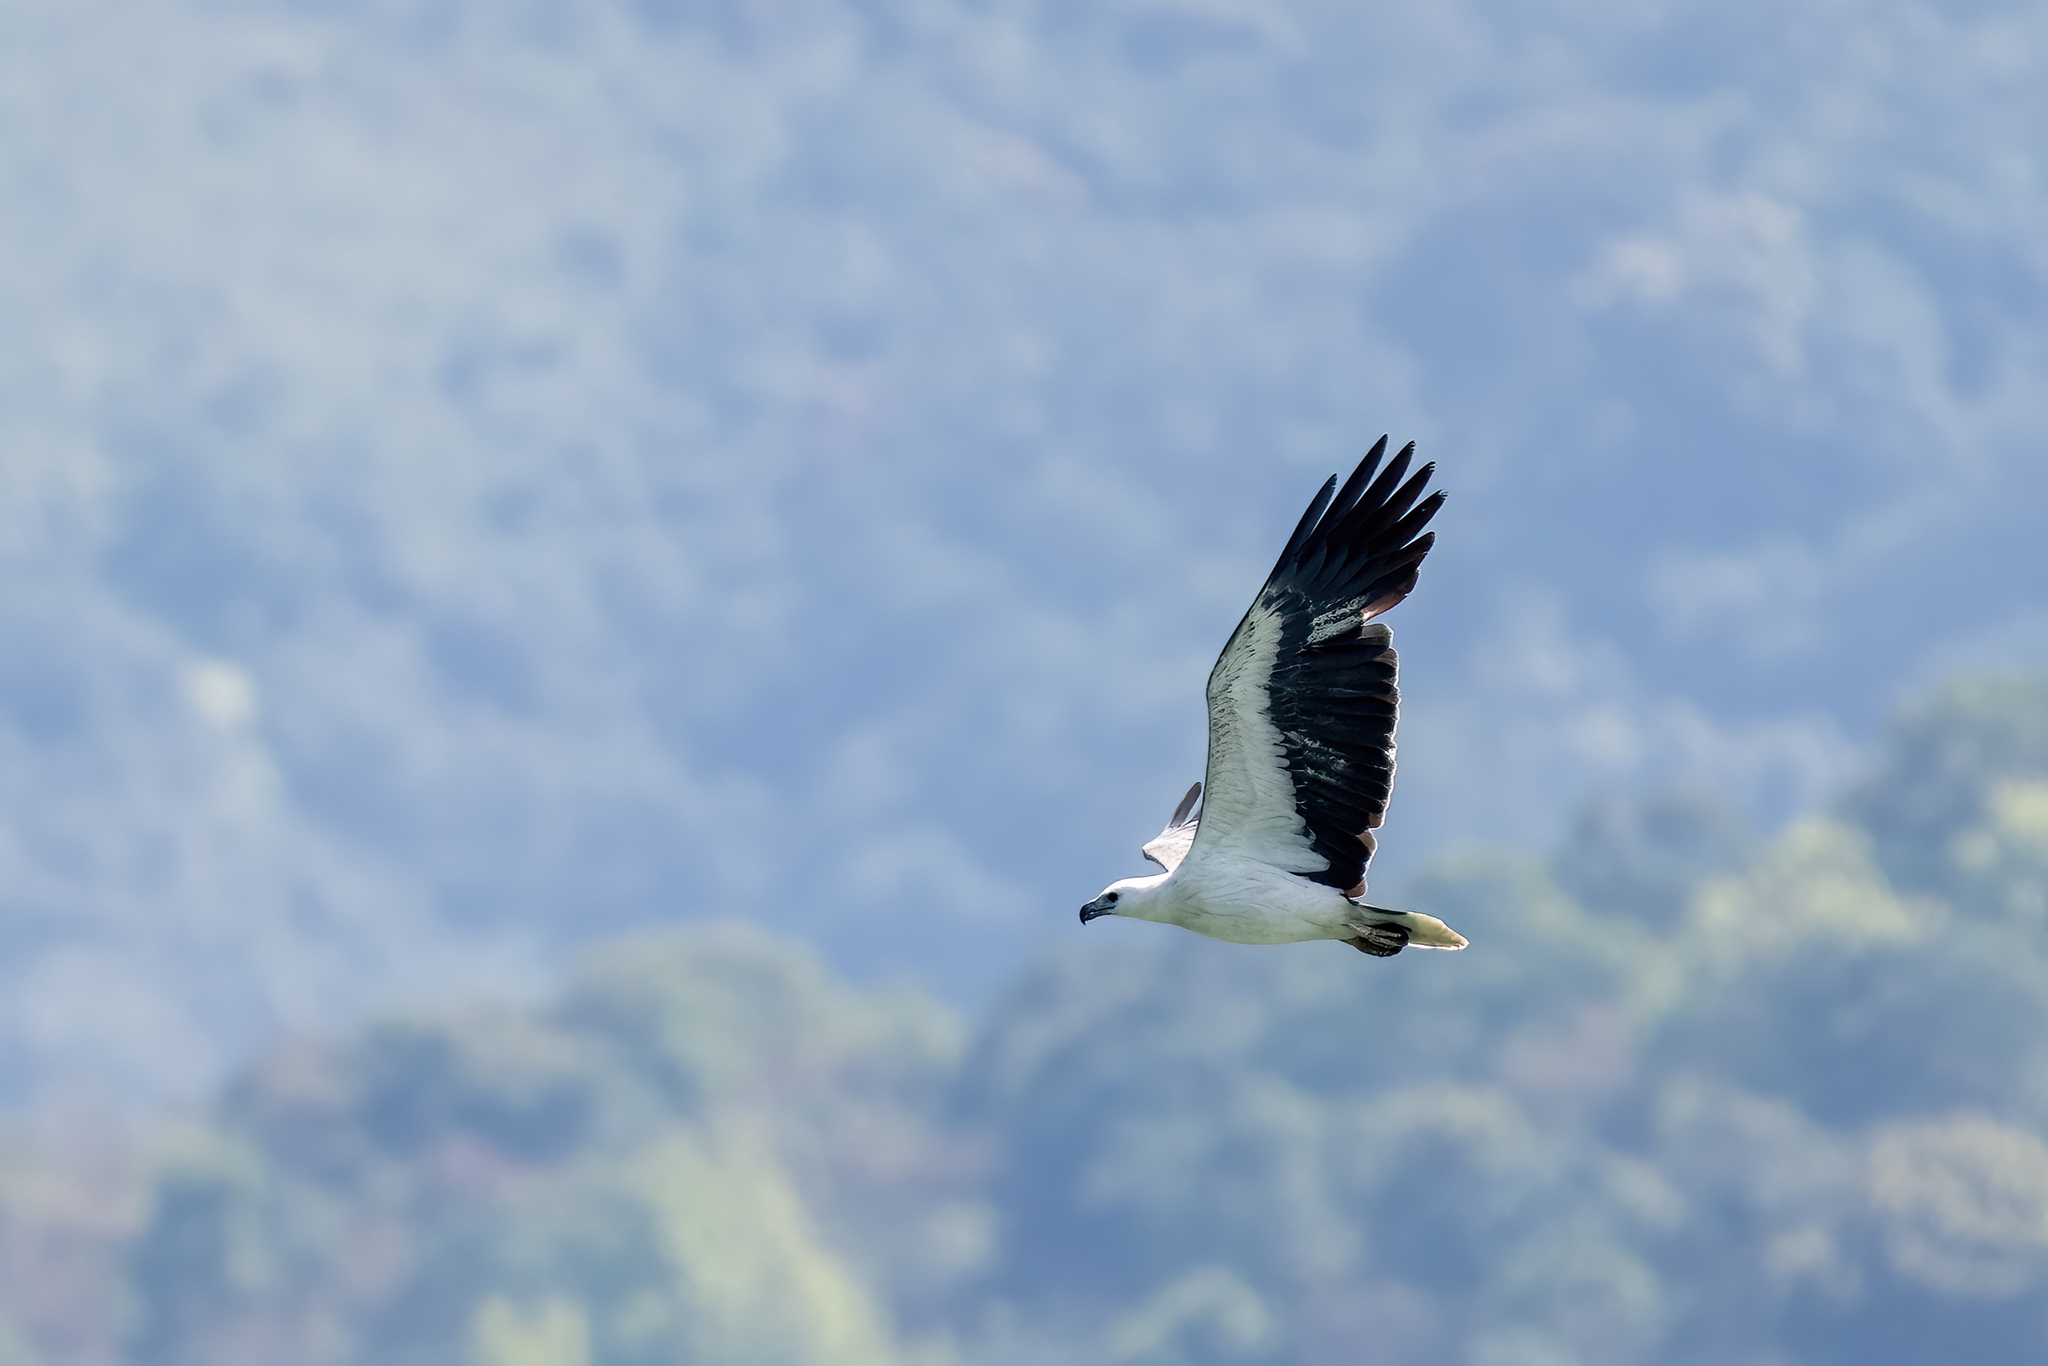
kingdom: Animalia
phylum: Chordata
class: Aves
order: Accipitriformes
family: Accipitridae
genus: Haliaeetus
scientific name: Haliaeetus leucogaster
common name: White-bellied sea eagle
